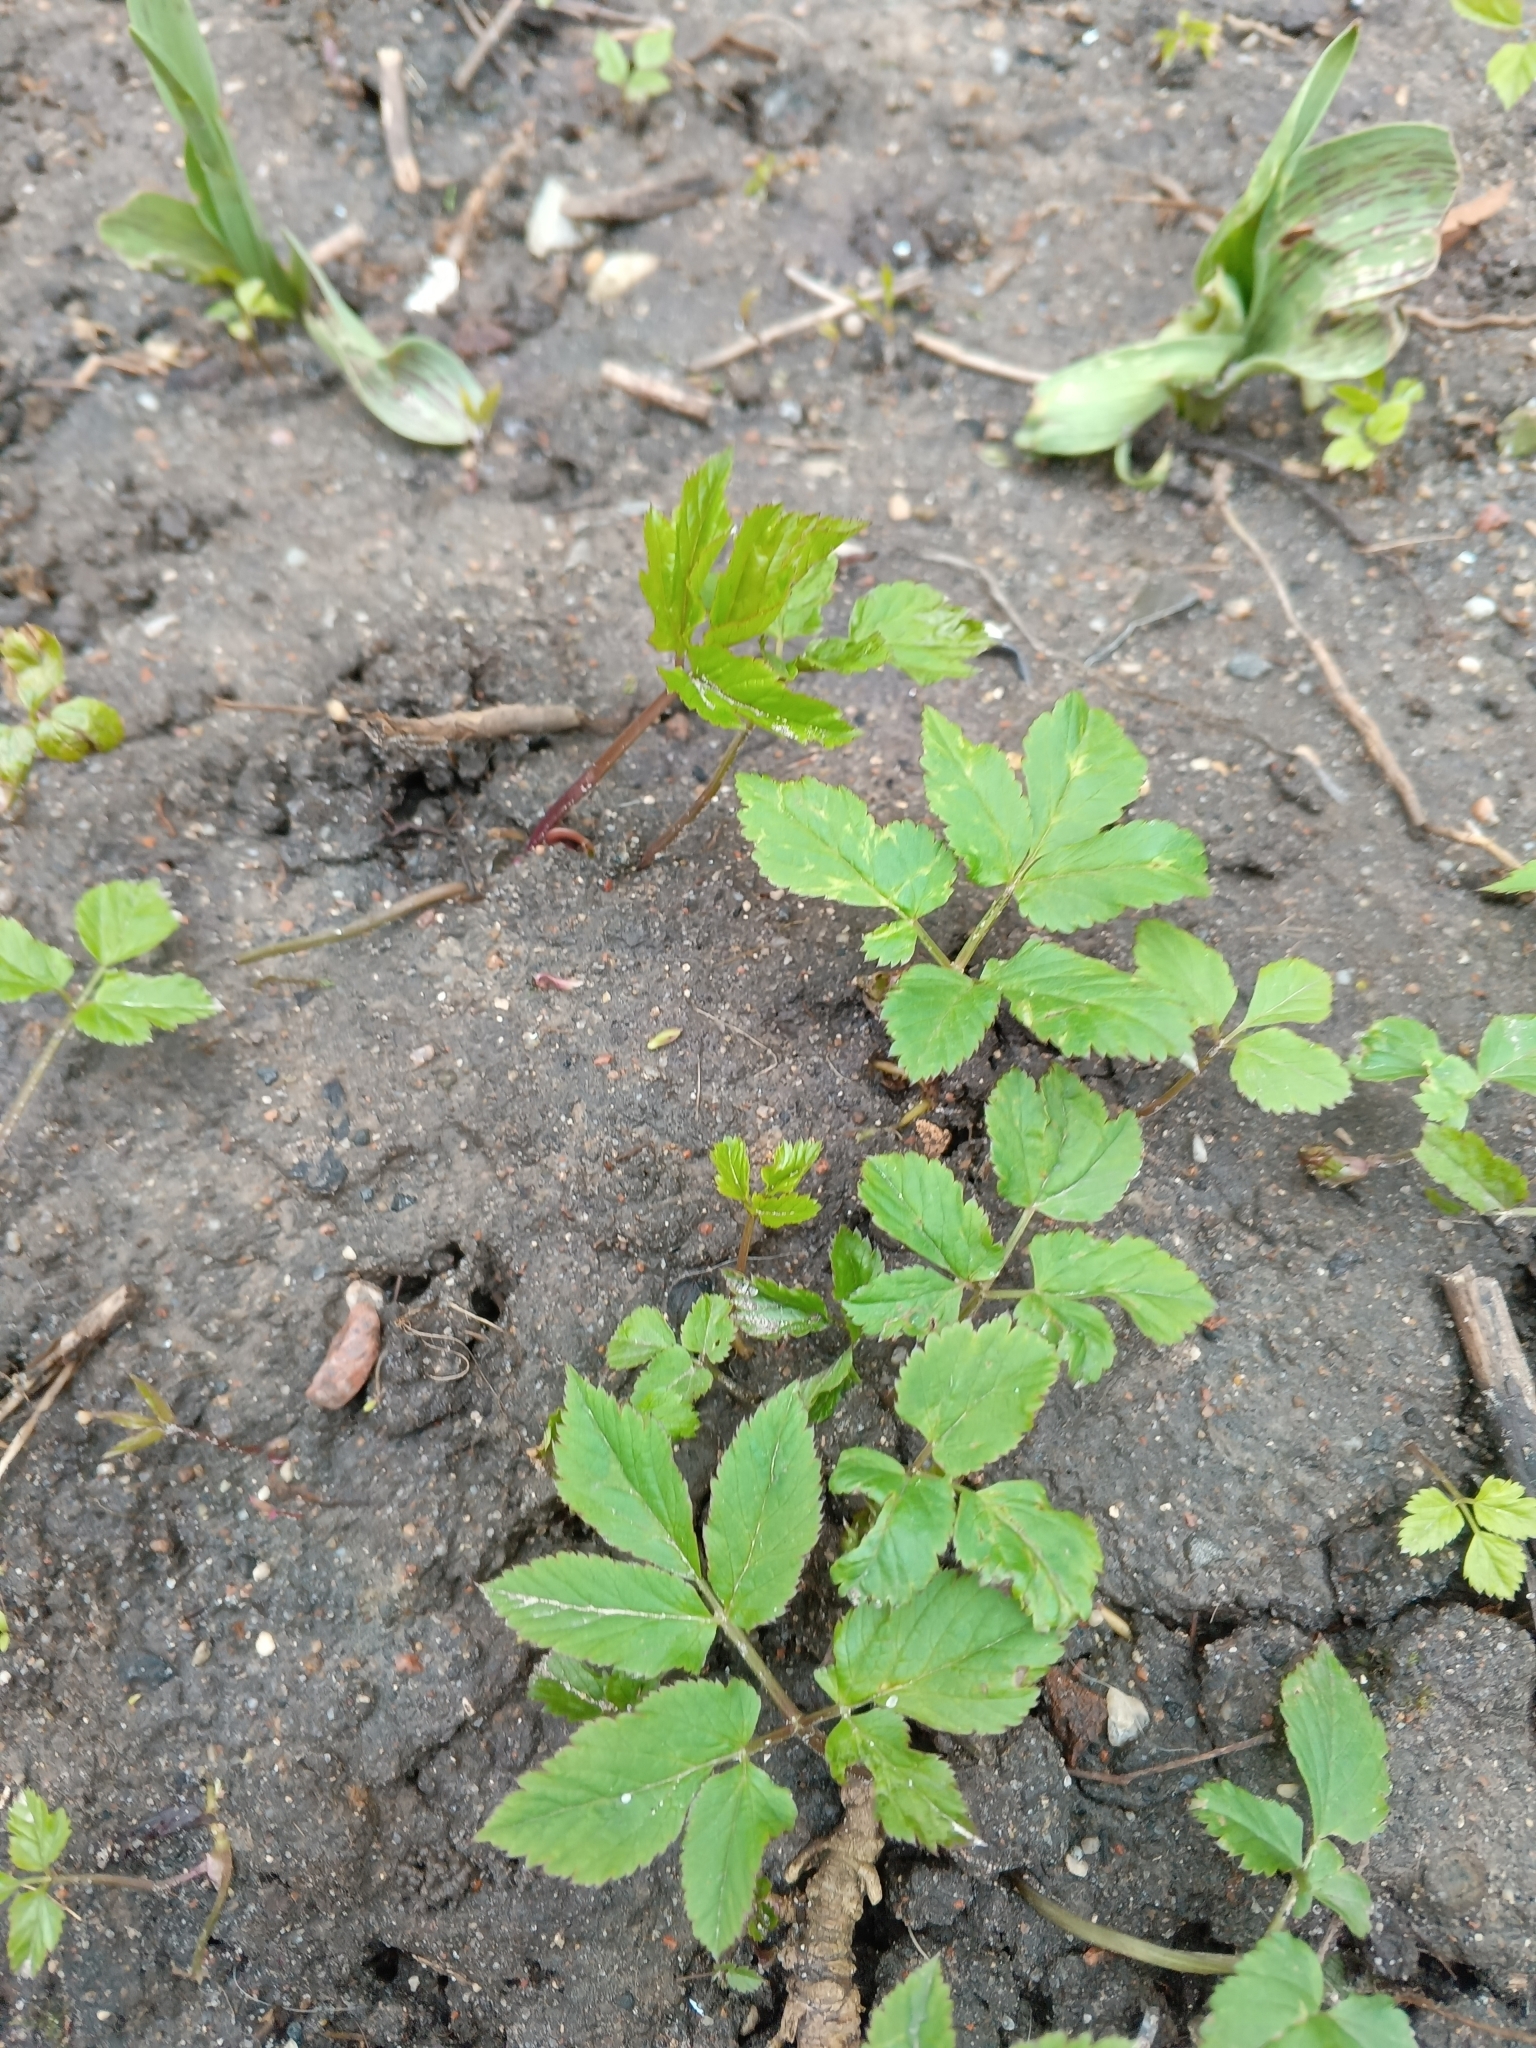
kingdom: Plantae
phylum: Tracheophyta
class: Magnoliopsida
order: Apiales
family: Apiaceae
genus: Aegopodium
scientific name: Aegopodium podagraria
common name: Ground-elder
